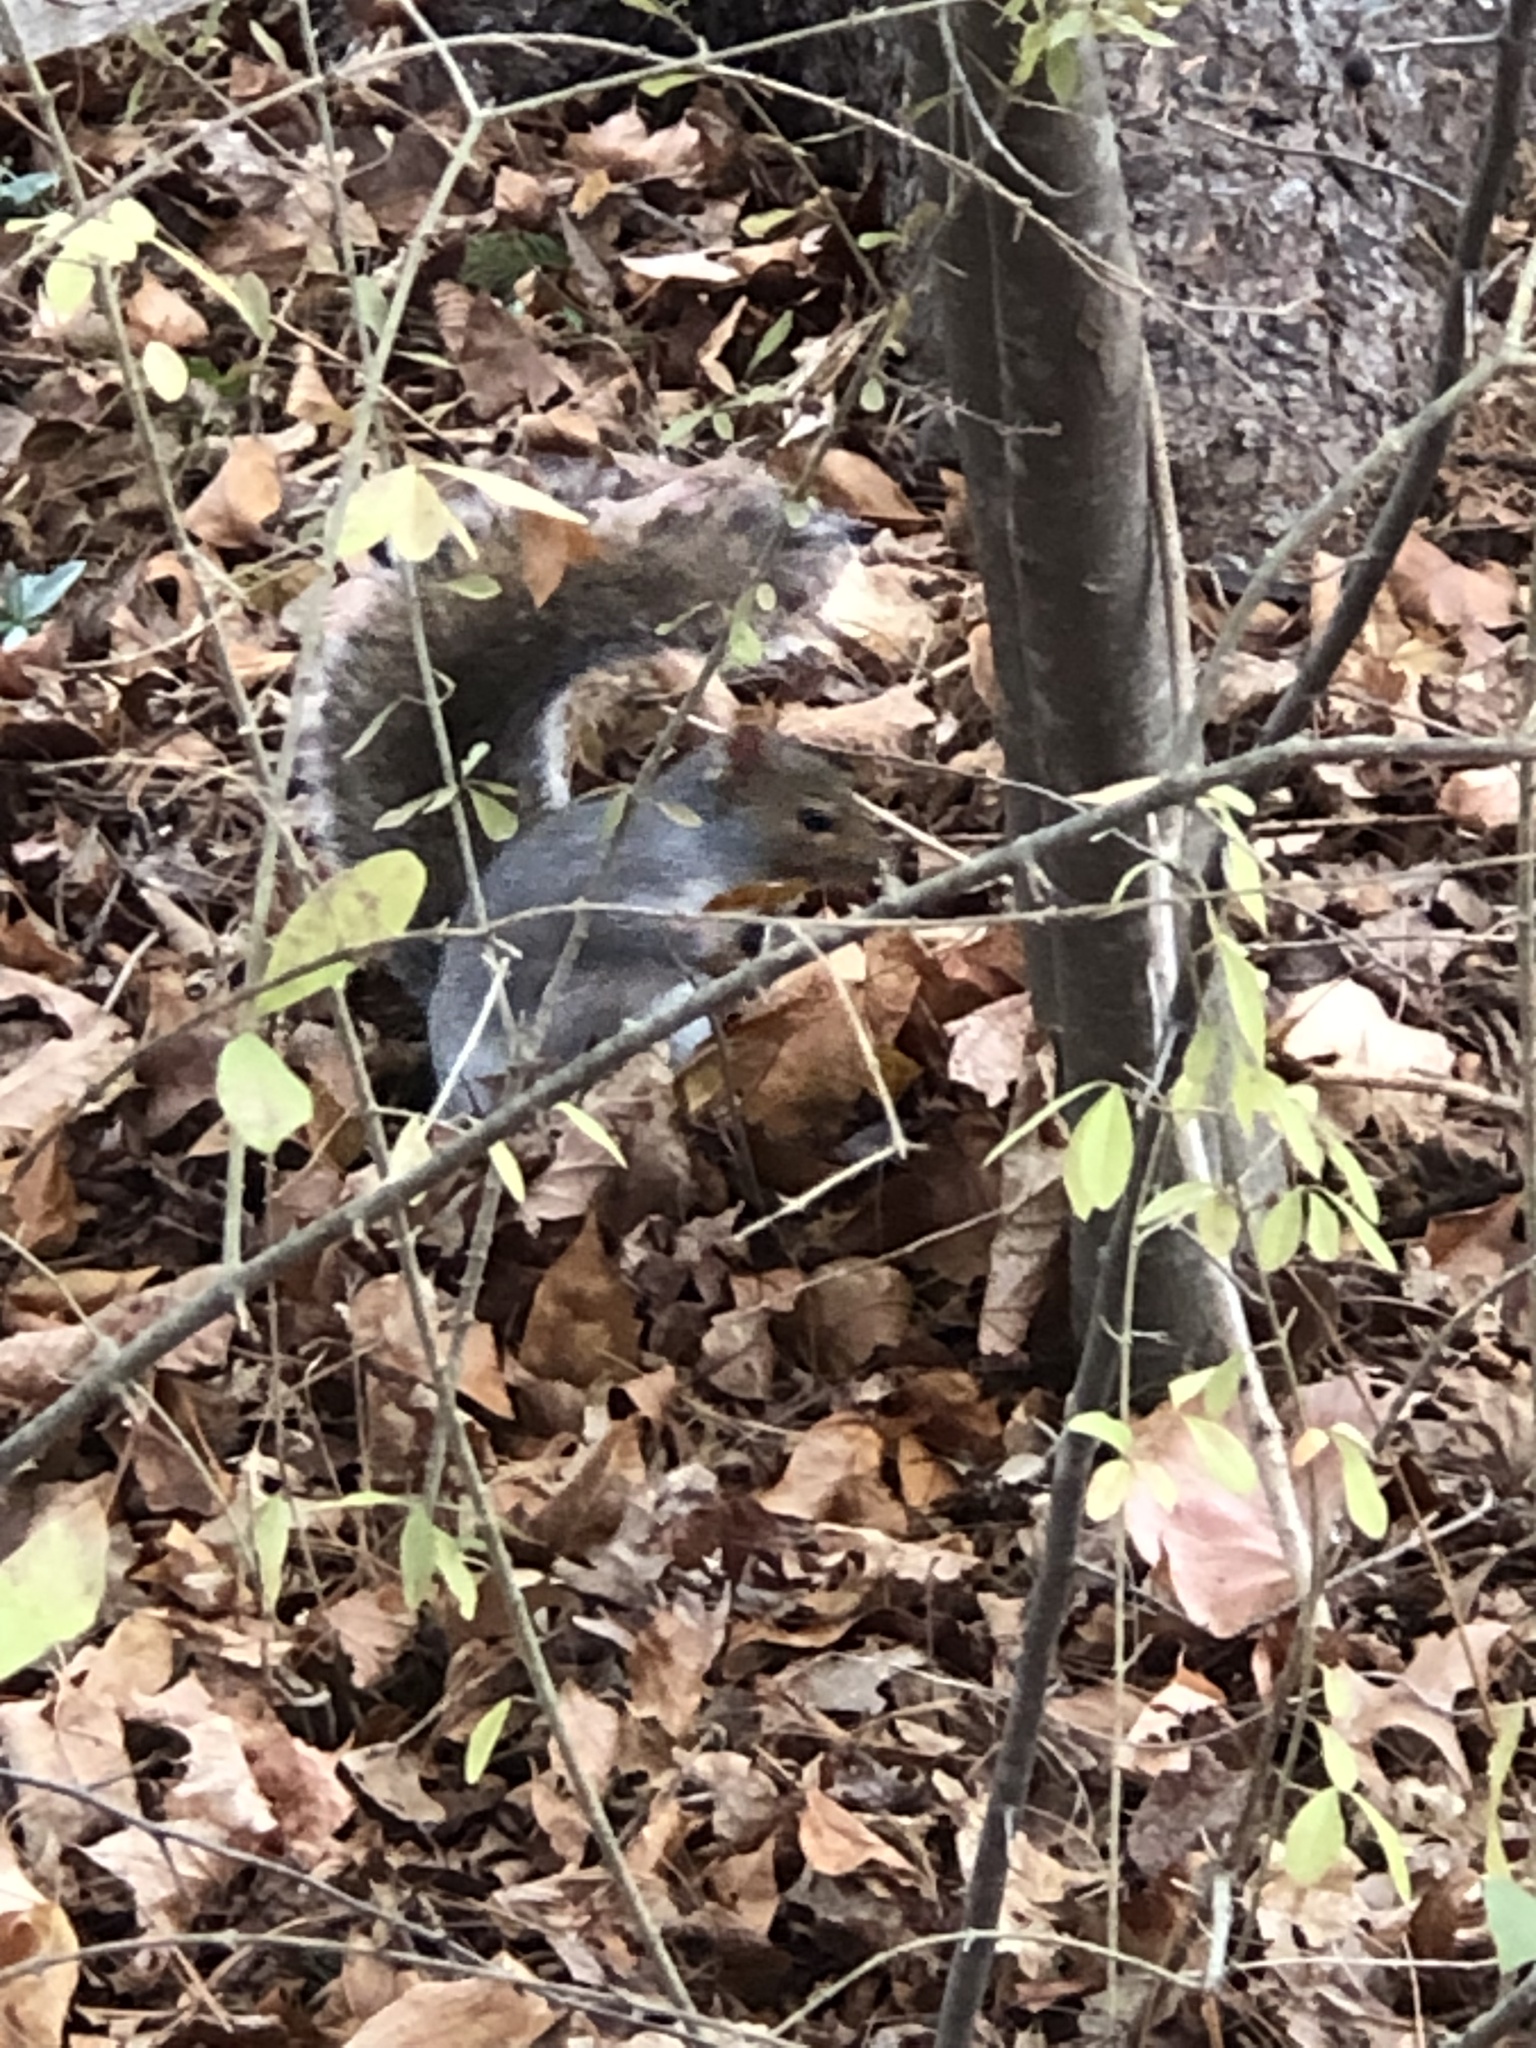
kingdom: Animalia
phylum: Chordata
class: Mammalia
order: Rodentia
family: Sciuridae
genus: Sciurus
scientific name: Sciurus carolinensis
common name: Eastern gray squirrel
